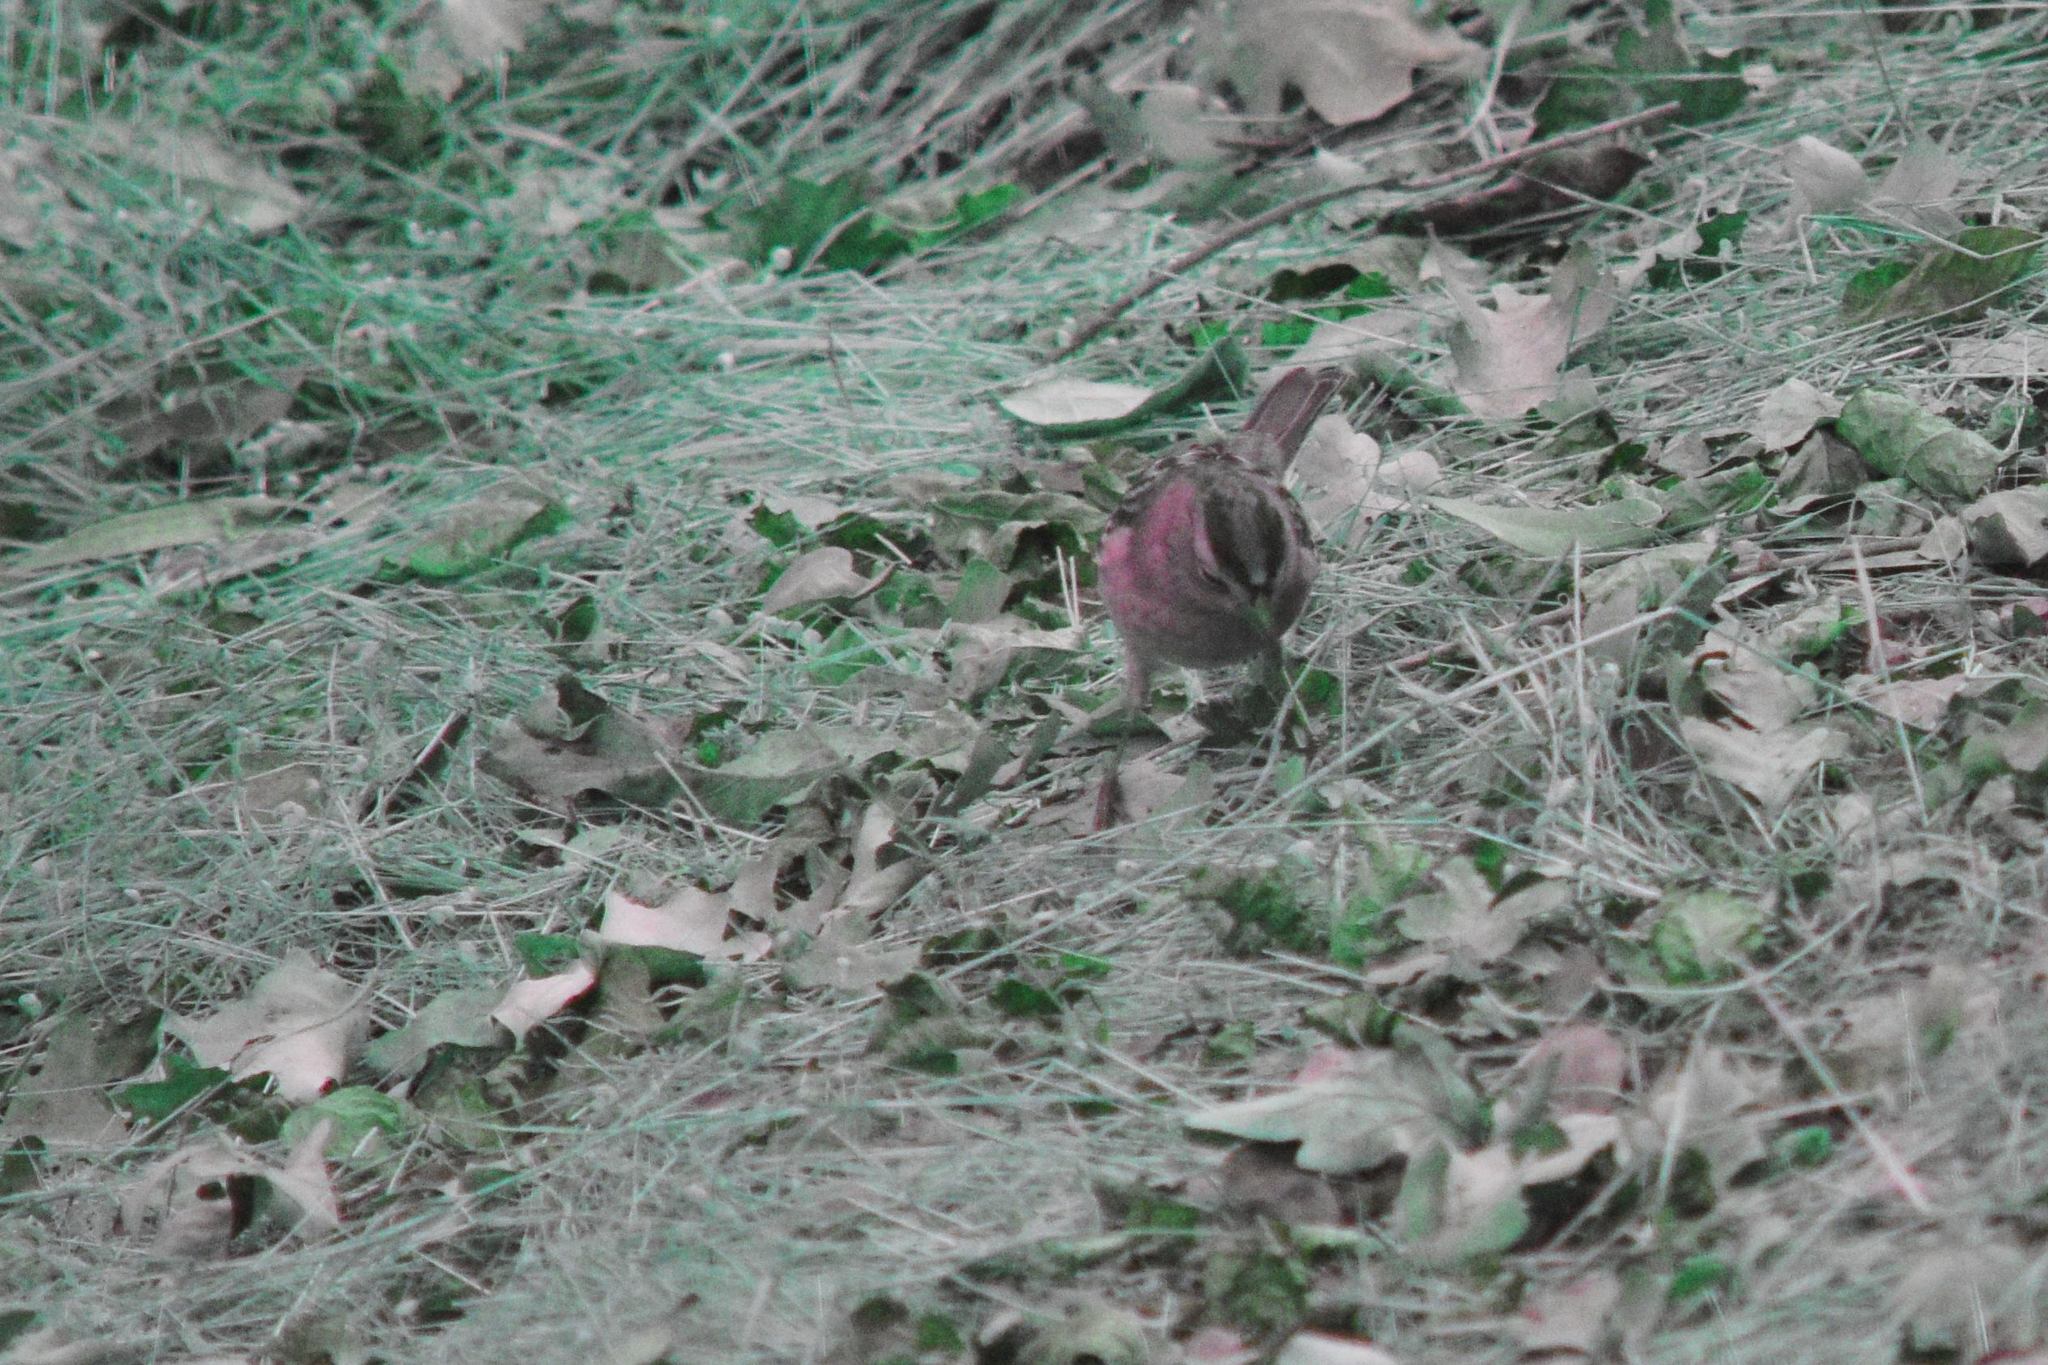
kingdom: Animalia
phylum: Chordata
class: Aves
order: Passeriformes
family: Passerellidae
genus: Zonotrichia
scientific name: Zonotrichia leucophrys
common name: White-crowned sparrow
